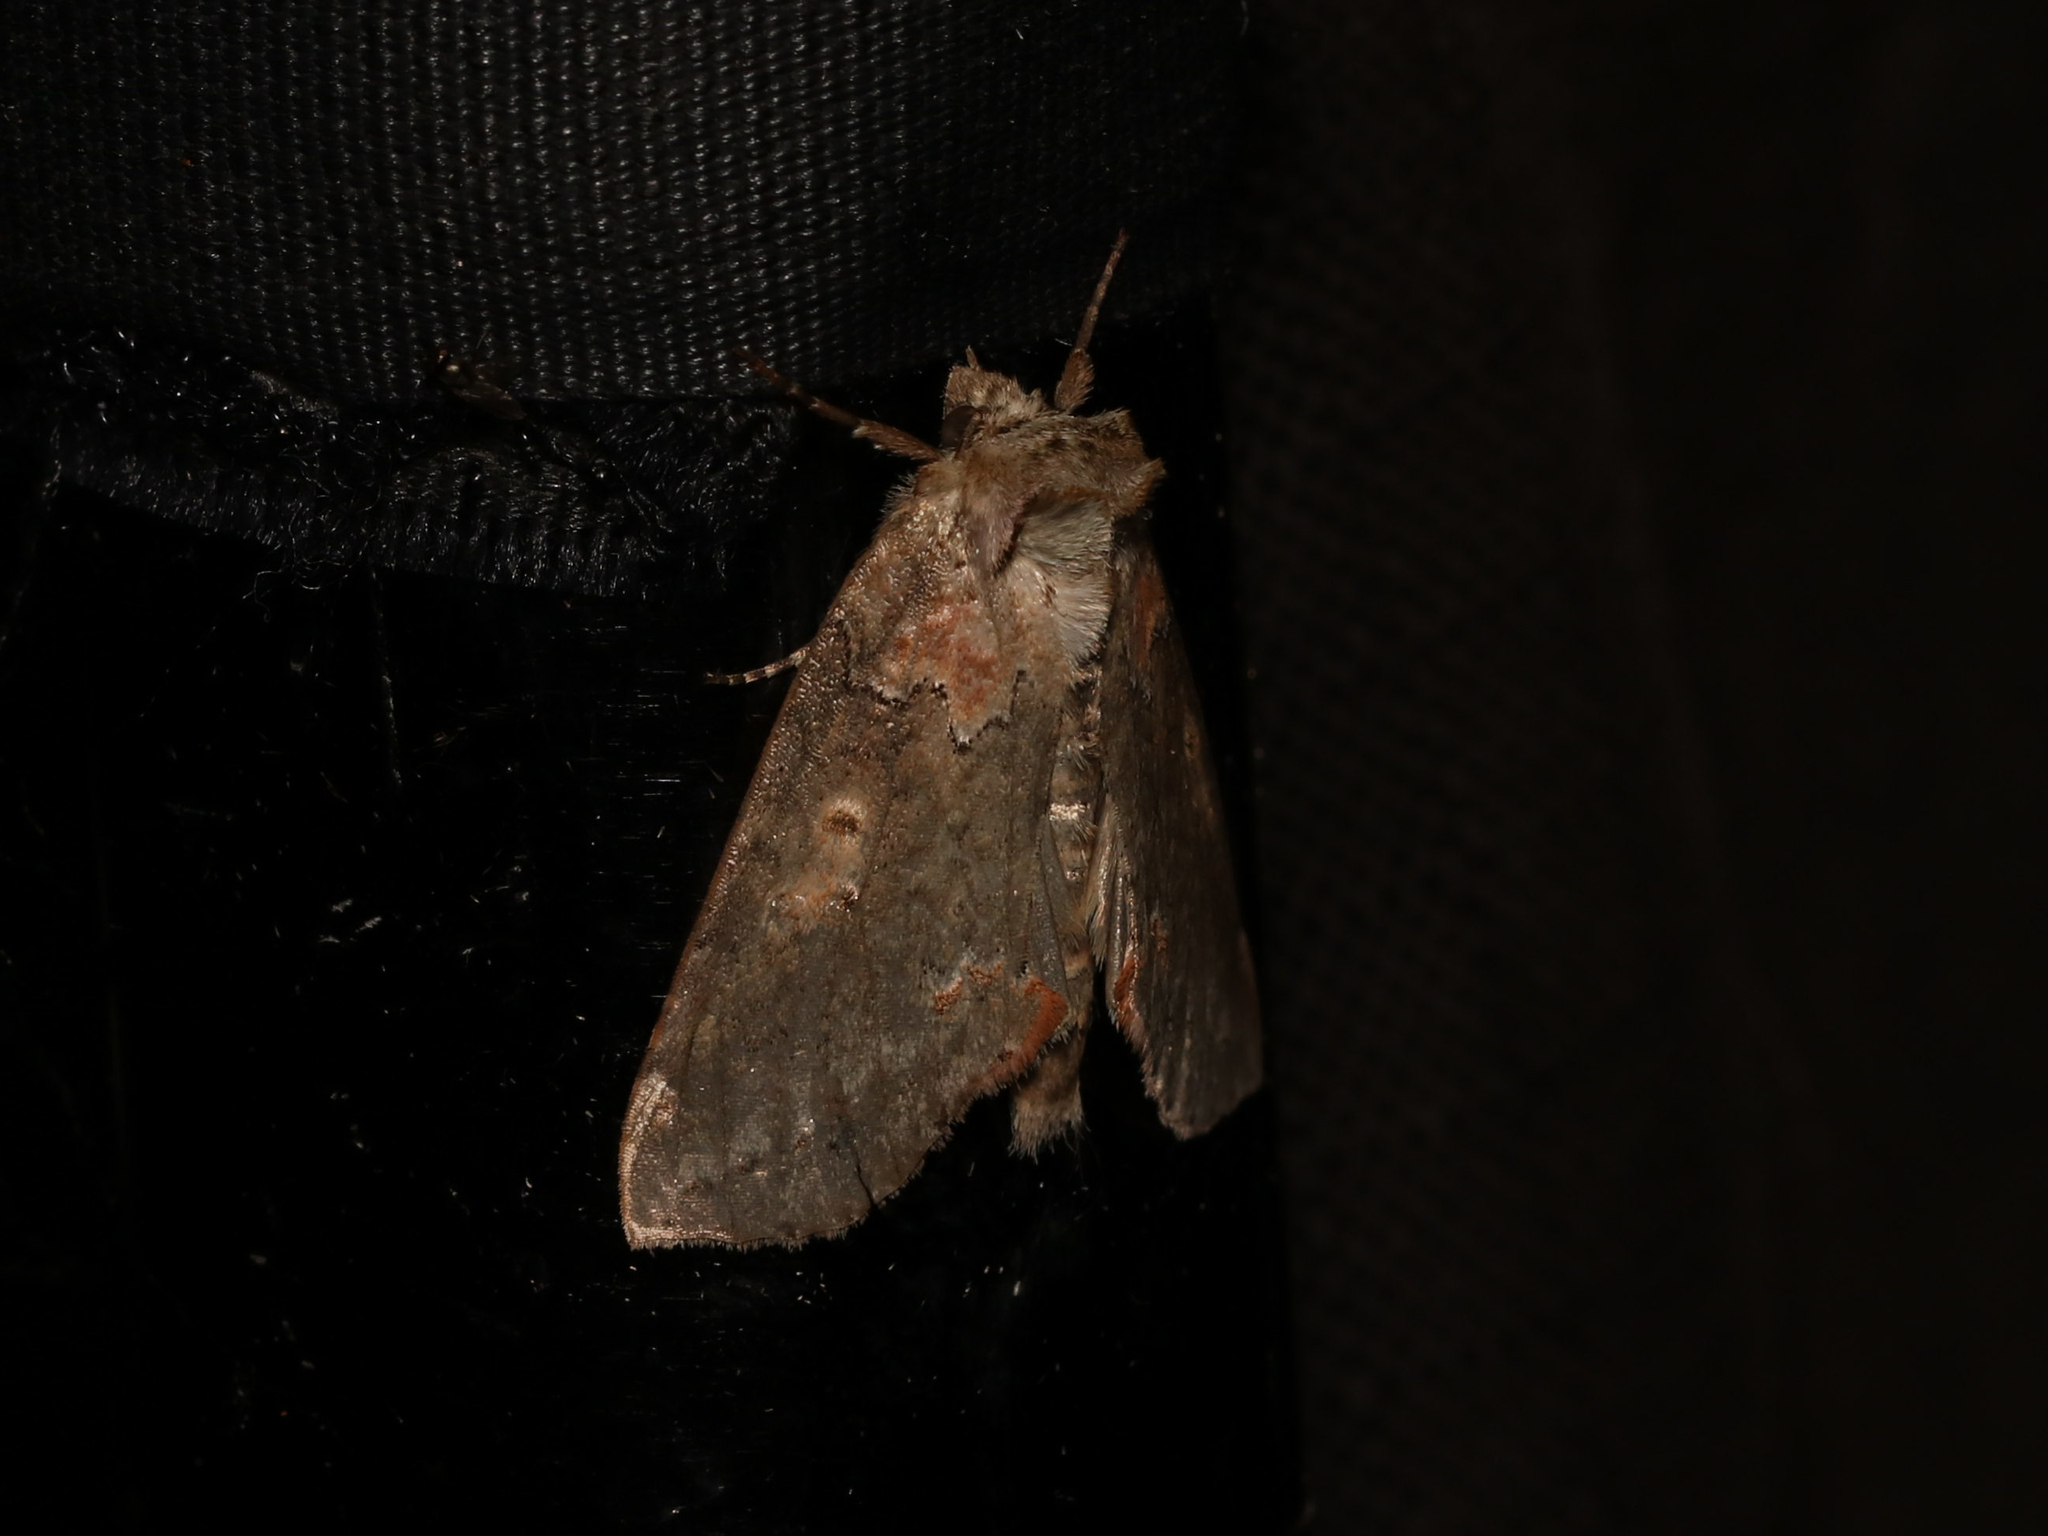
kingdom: Animalia
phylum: Arthropoda
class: Insecta
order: Lepidoptera
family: Drepanidae
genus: Pseudothyatira
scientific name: Pseudothyatira cymatophoroides
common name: Tufted thyatirid moth
